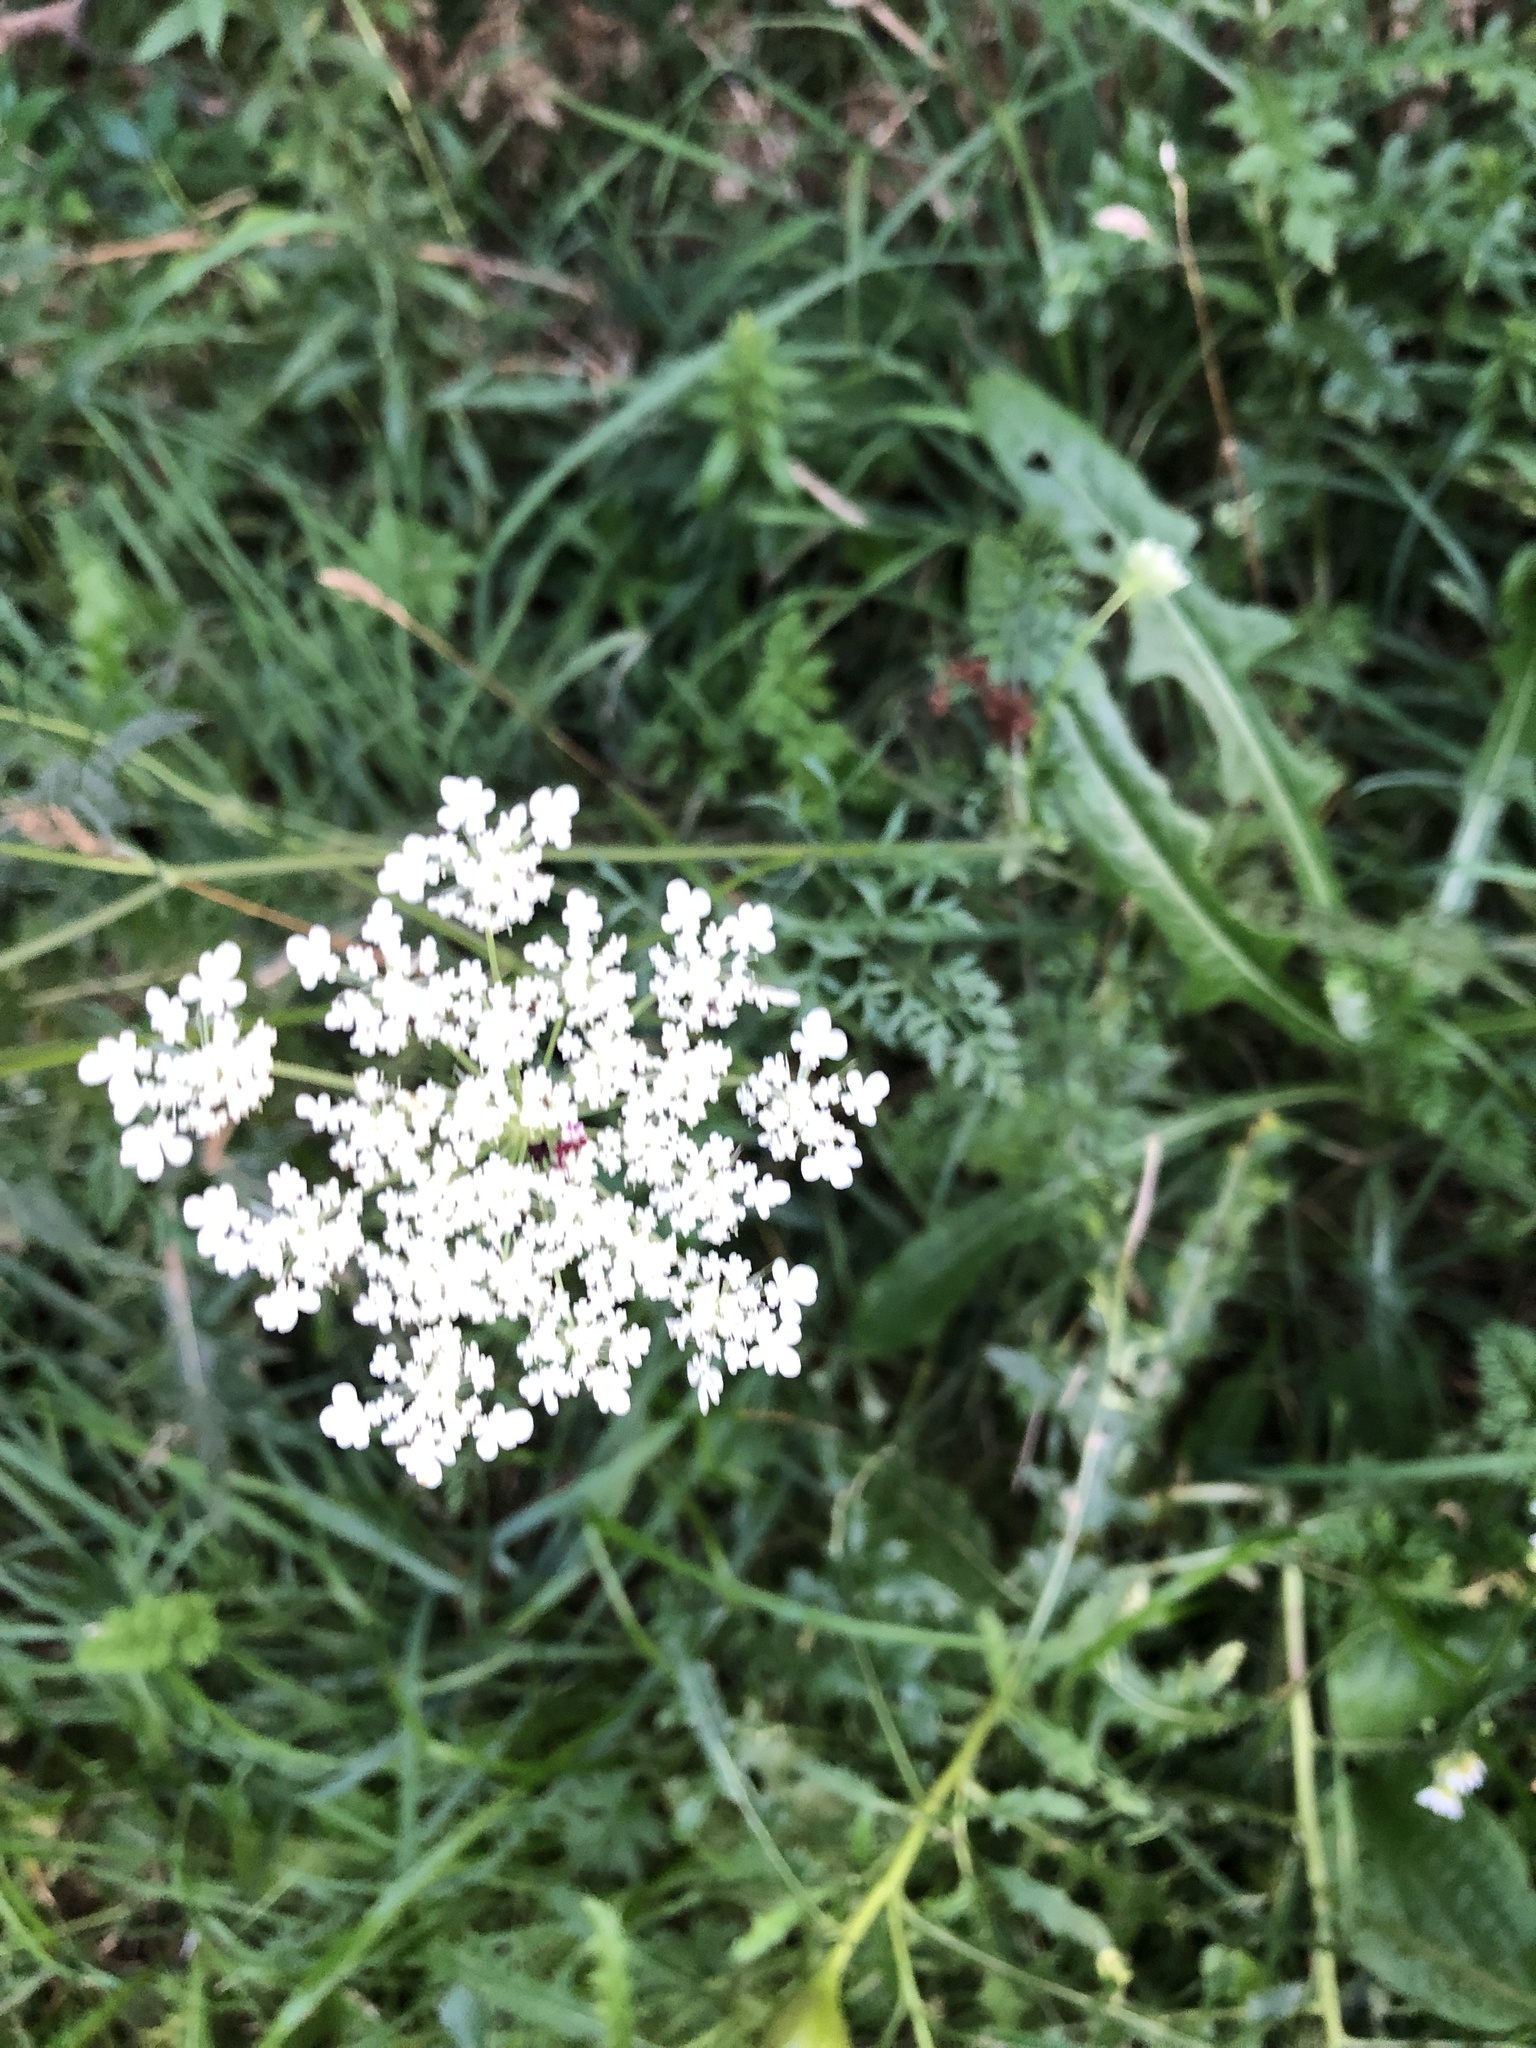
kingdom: Plantae
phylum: Tracheophyta
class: Magnoliopsida
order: Apiales
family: Apiaceae
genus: Daucus
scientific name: Daucus carota
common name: Wild carrot
